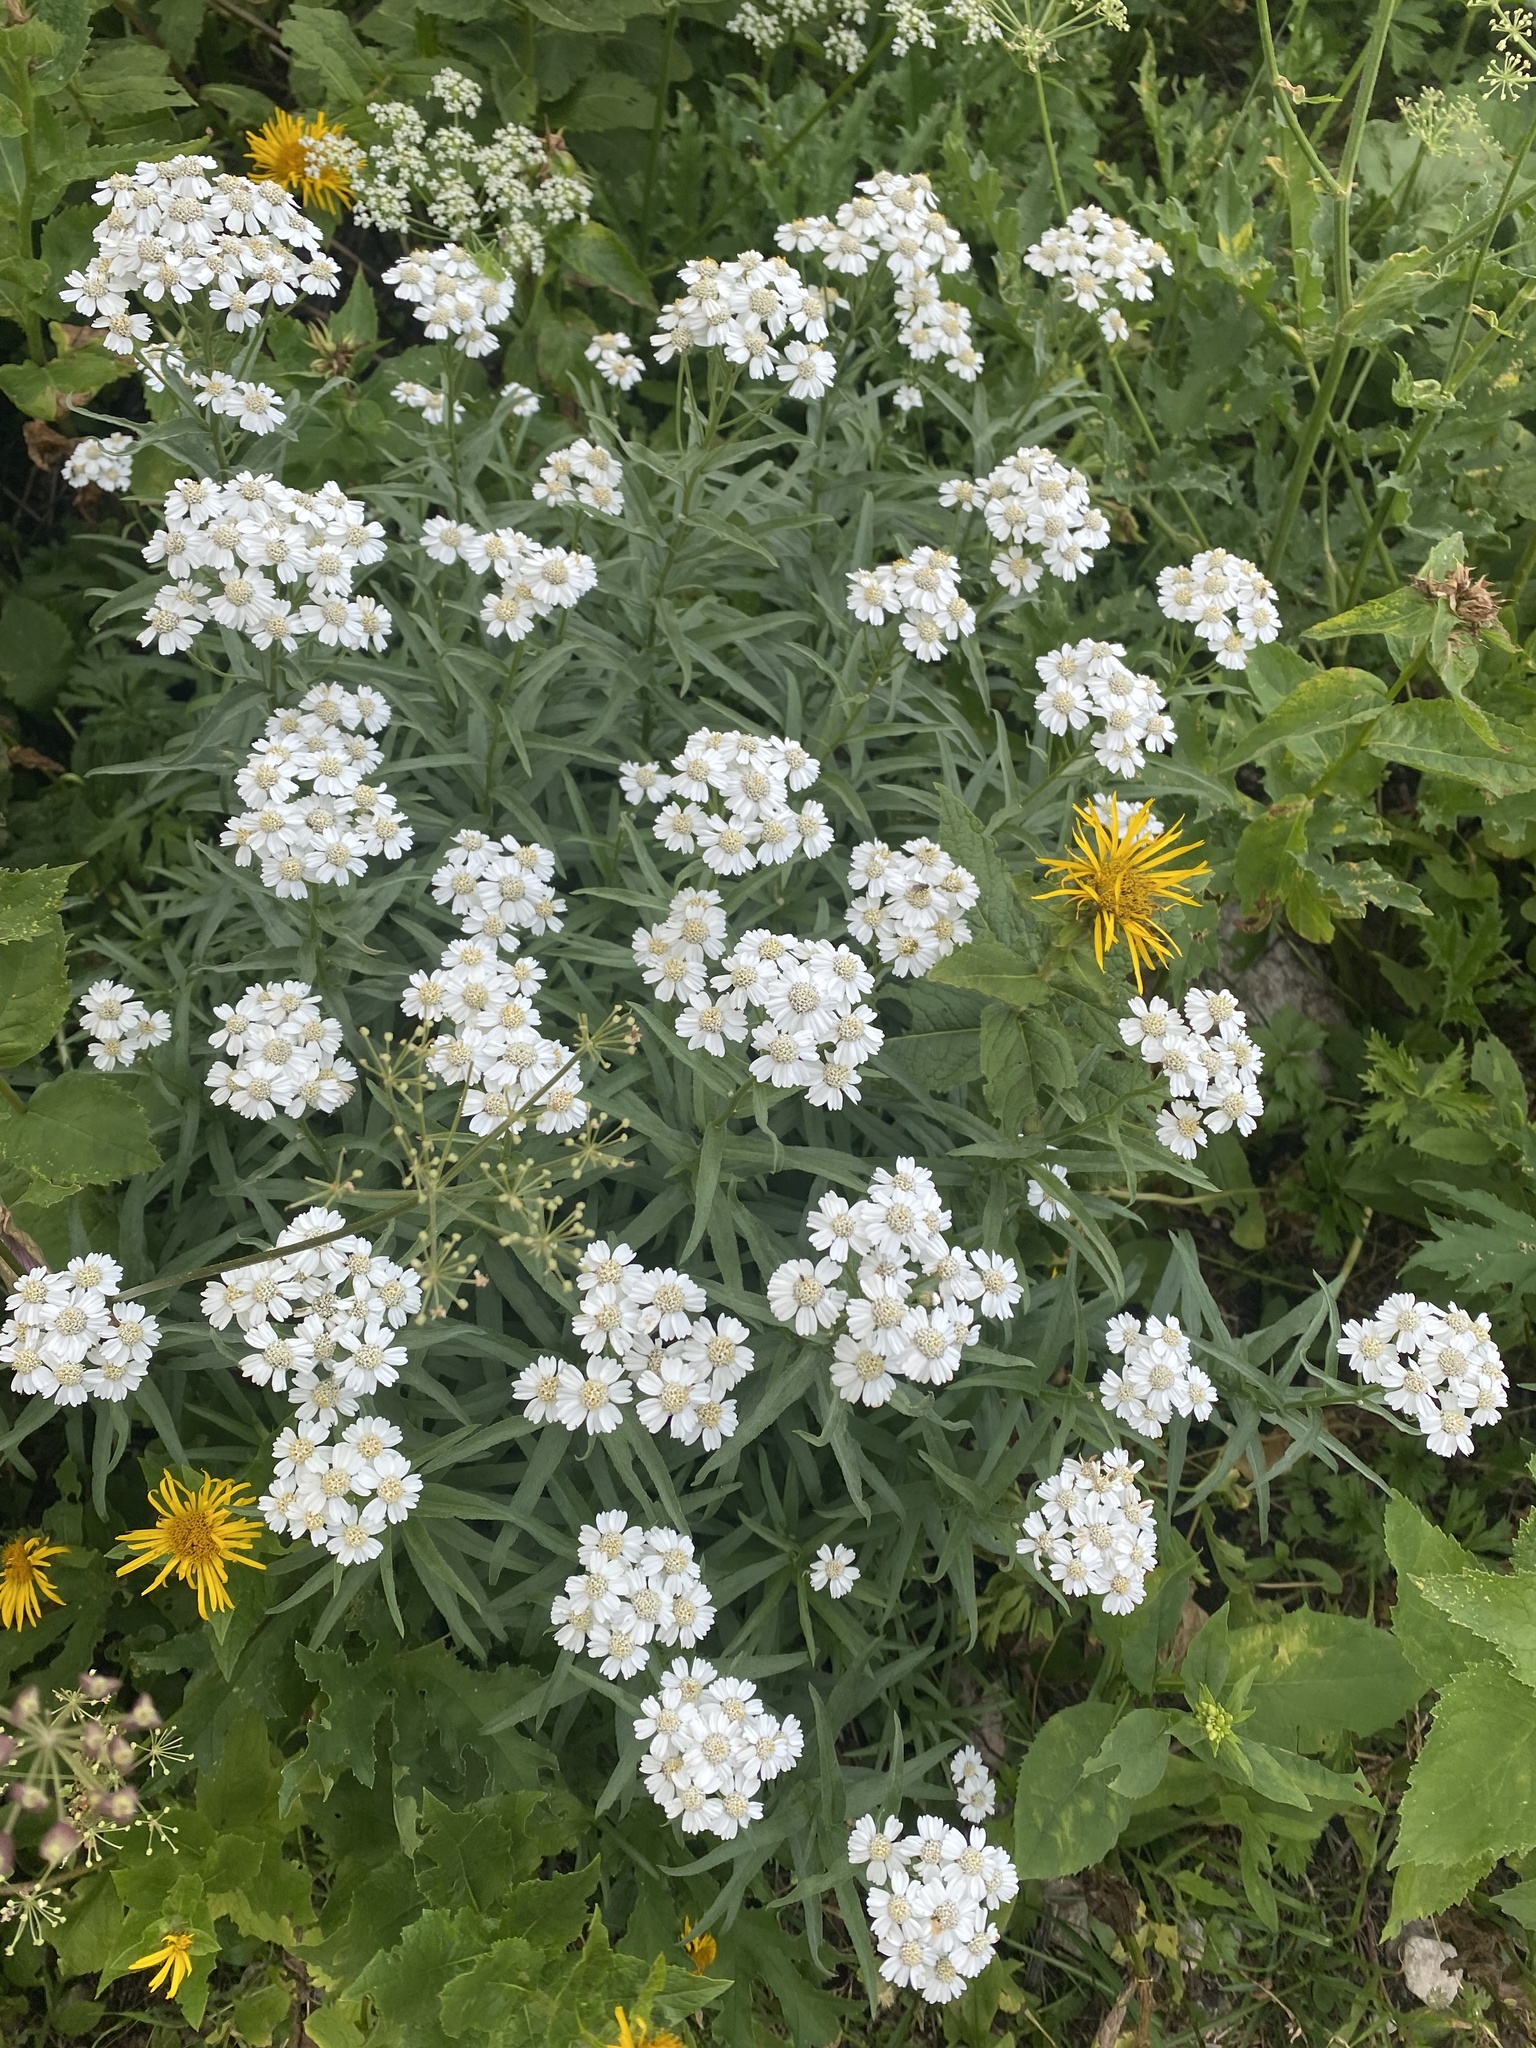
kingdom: Plantae
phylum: Tracheophyta
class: Magnoliopsida
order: Asterales
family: Asteraceae
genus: Achillea
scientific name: Achillea biserrata
